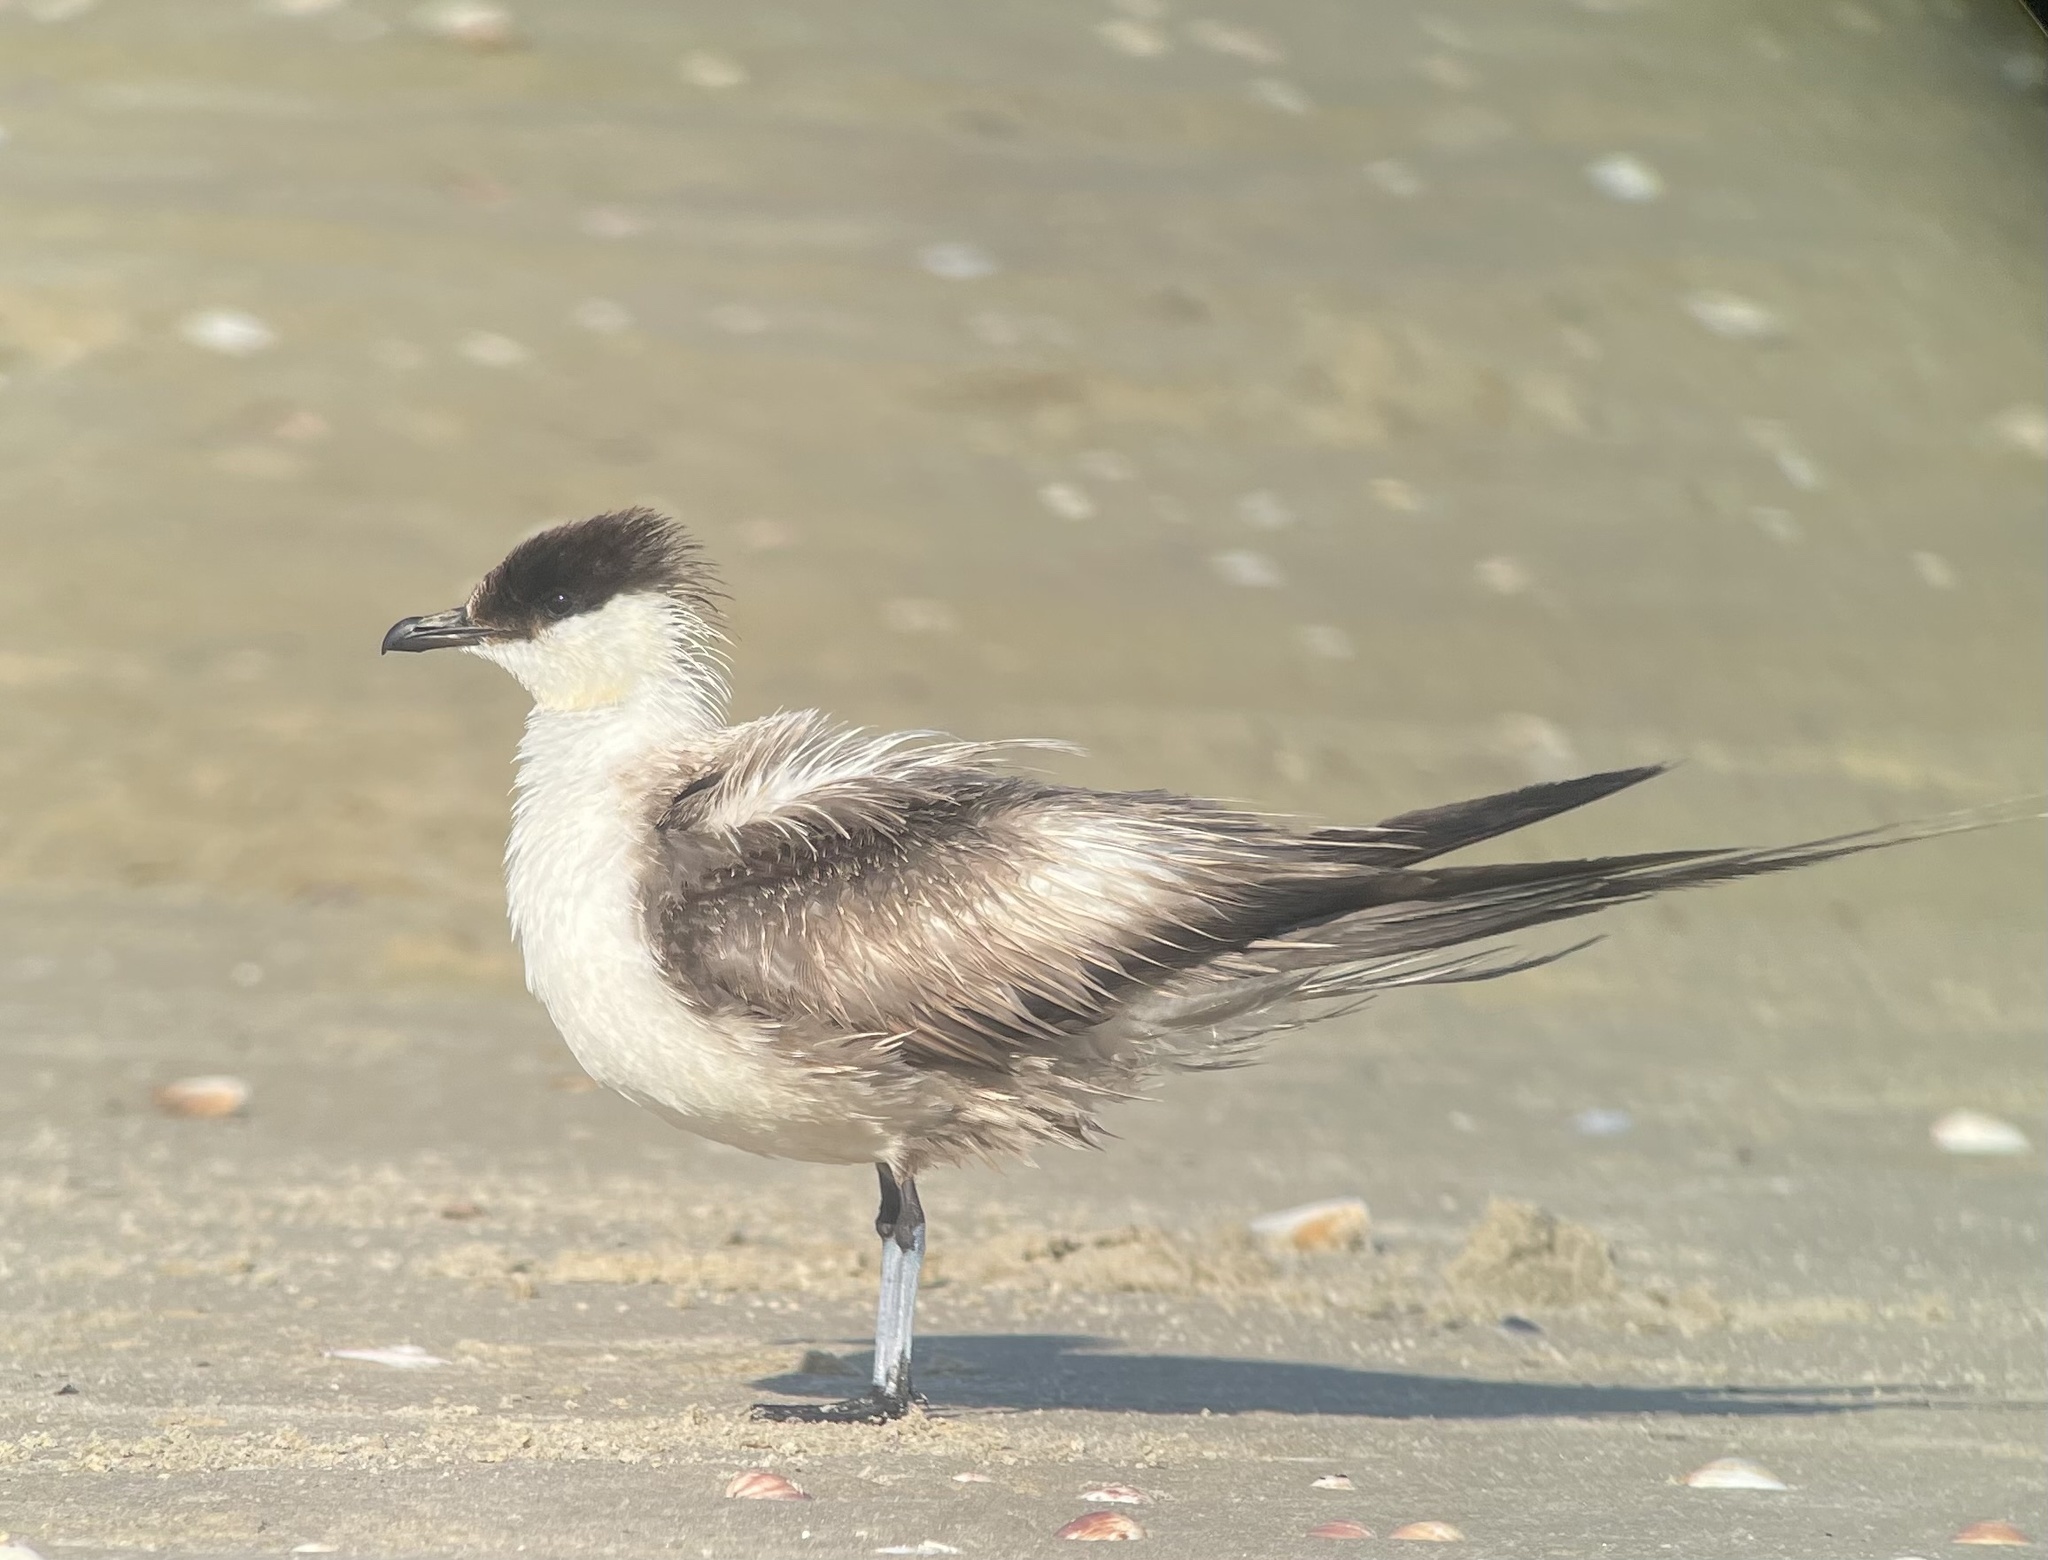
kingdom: Animalia
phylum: Chordata
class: Aves
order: Charadriiformes
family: Stercorariidae
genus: Stercorarius
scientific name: Stercorarius longicaudus
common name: Long-tailed jaeger
